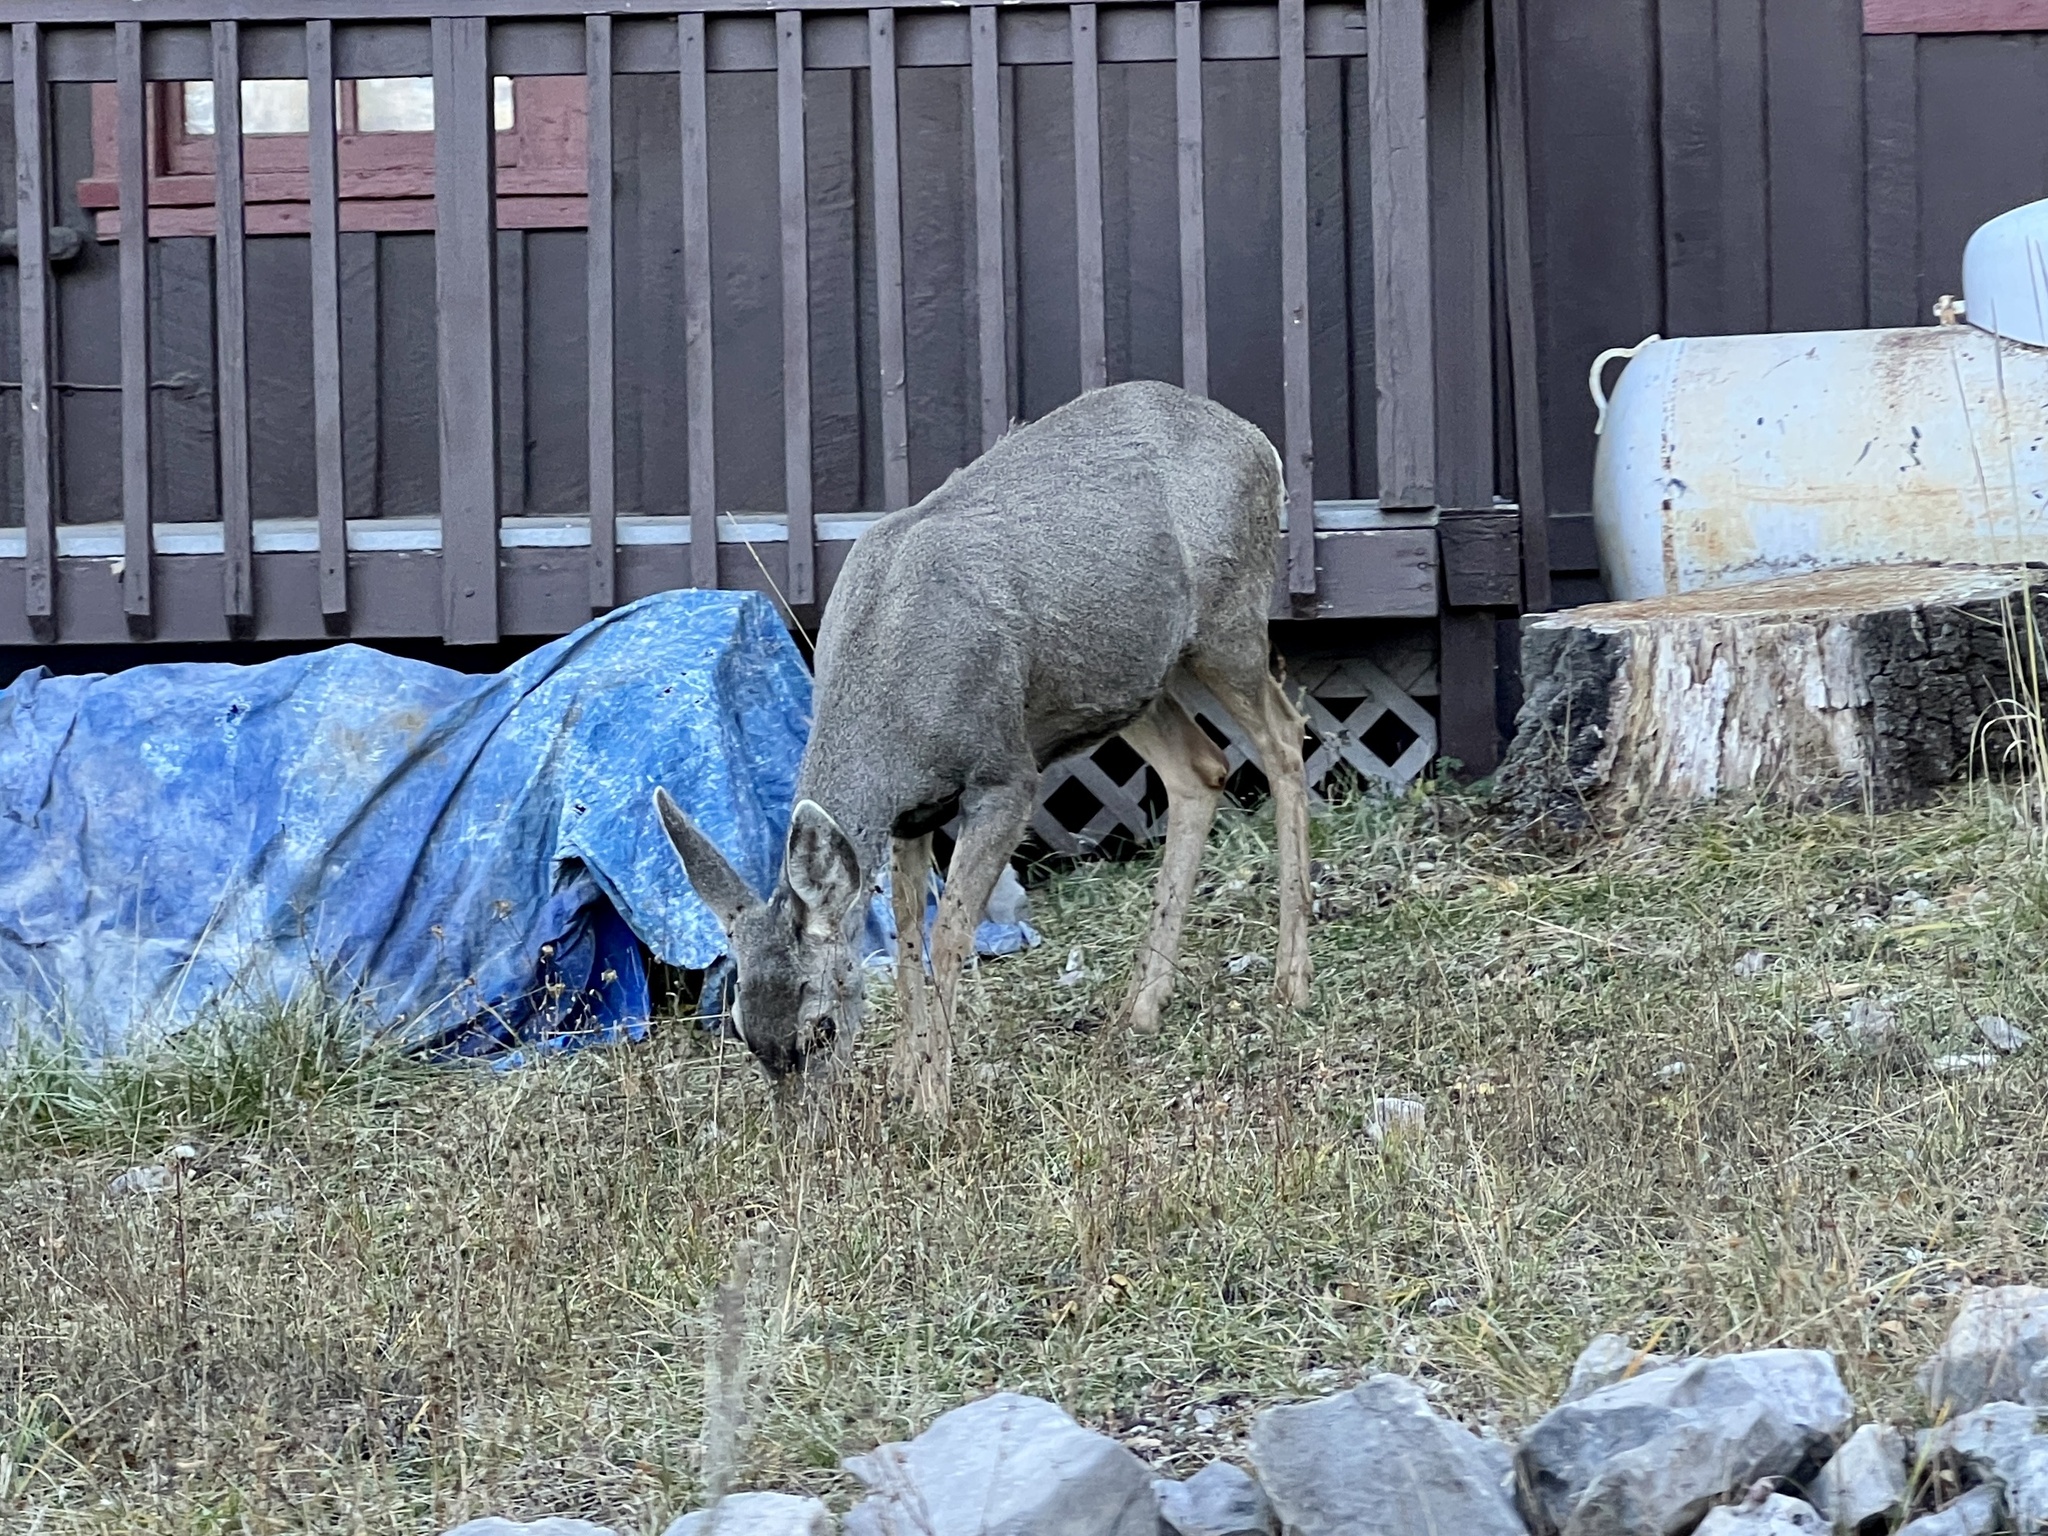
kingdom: Animalia
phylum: Chordata
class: Mammalia
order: Artiodactyla
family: Cervidae
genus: Odocoileus
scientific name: Odocoileus hemionus
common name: Mule deer
